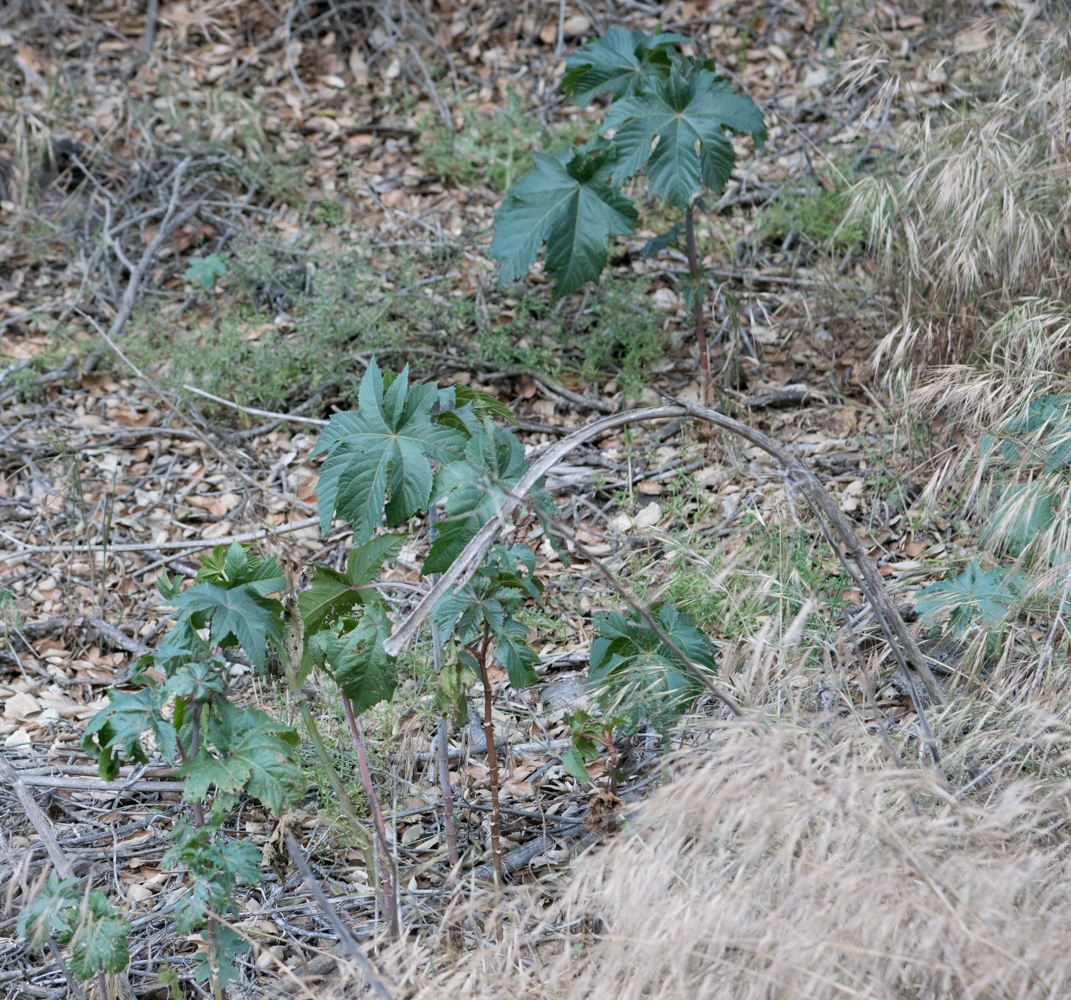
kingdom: Plantae
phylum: Tracheophyta
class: Magnoliopsida
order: Malpighiales
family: Euphorbiaceae
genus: Ricinus
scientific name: Ricinus communis
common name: Castor-oil-plant
